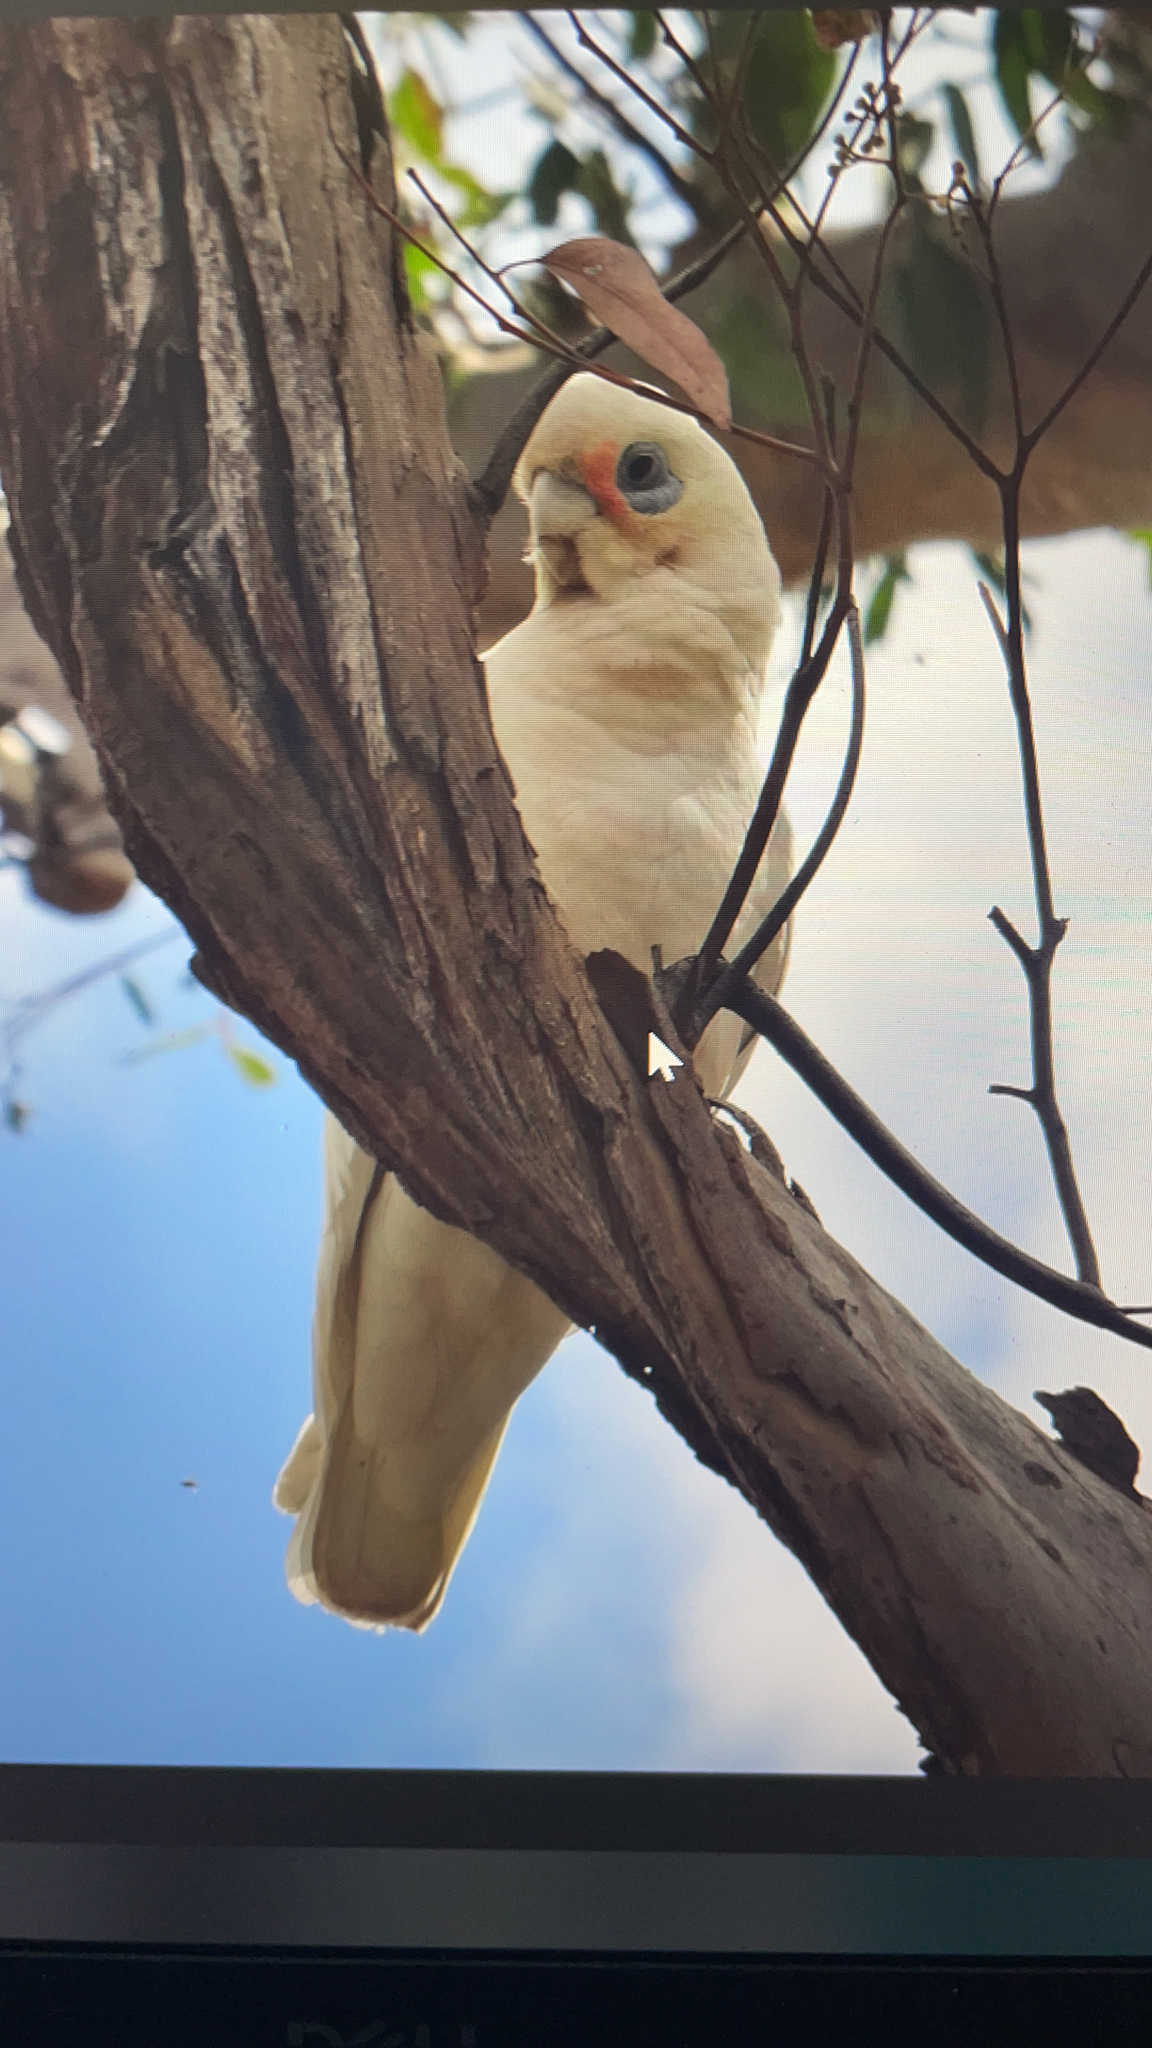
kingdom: Animalia
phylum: Chordata
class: Aves
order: Psittaciformes
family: Psittacidae
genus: Cacatua
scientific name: Cacatua sanguinea
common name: Little corella
